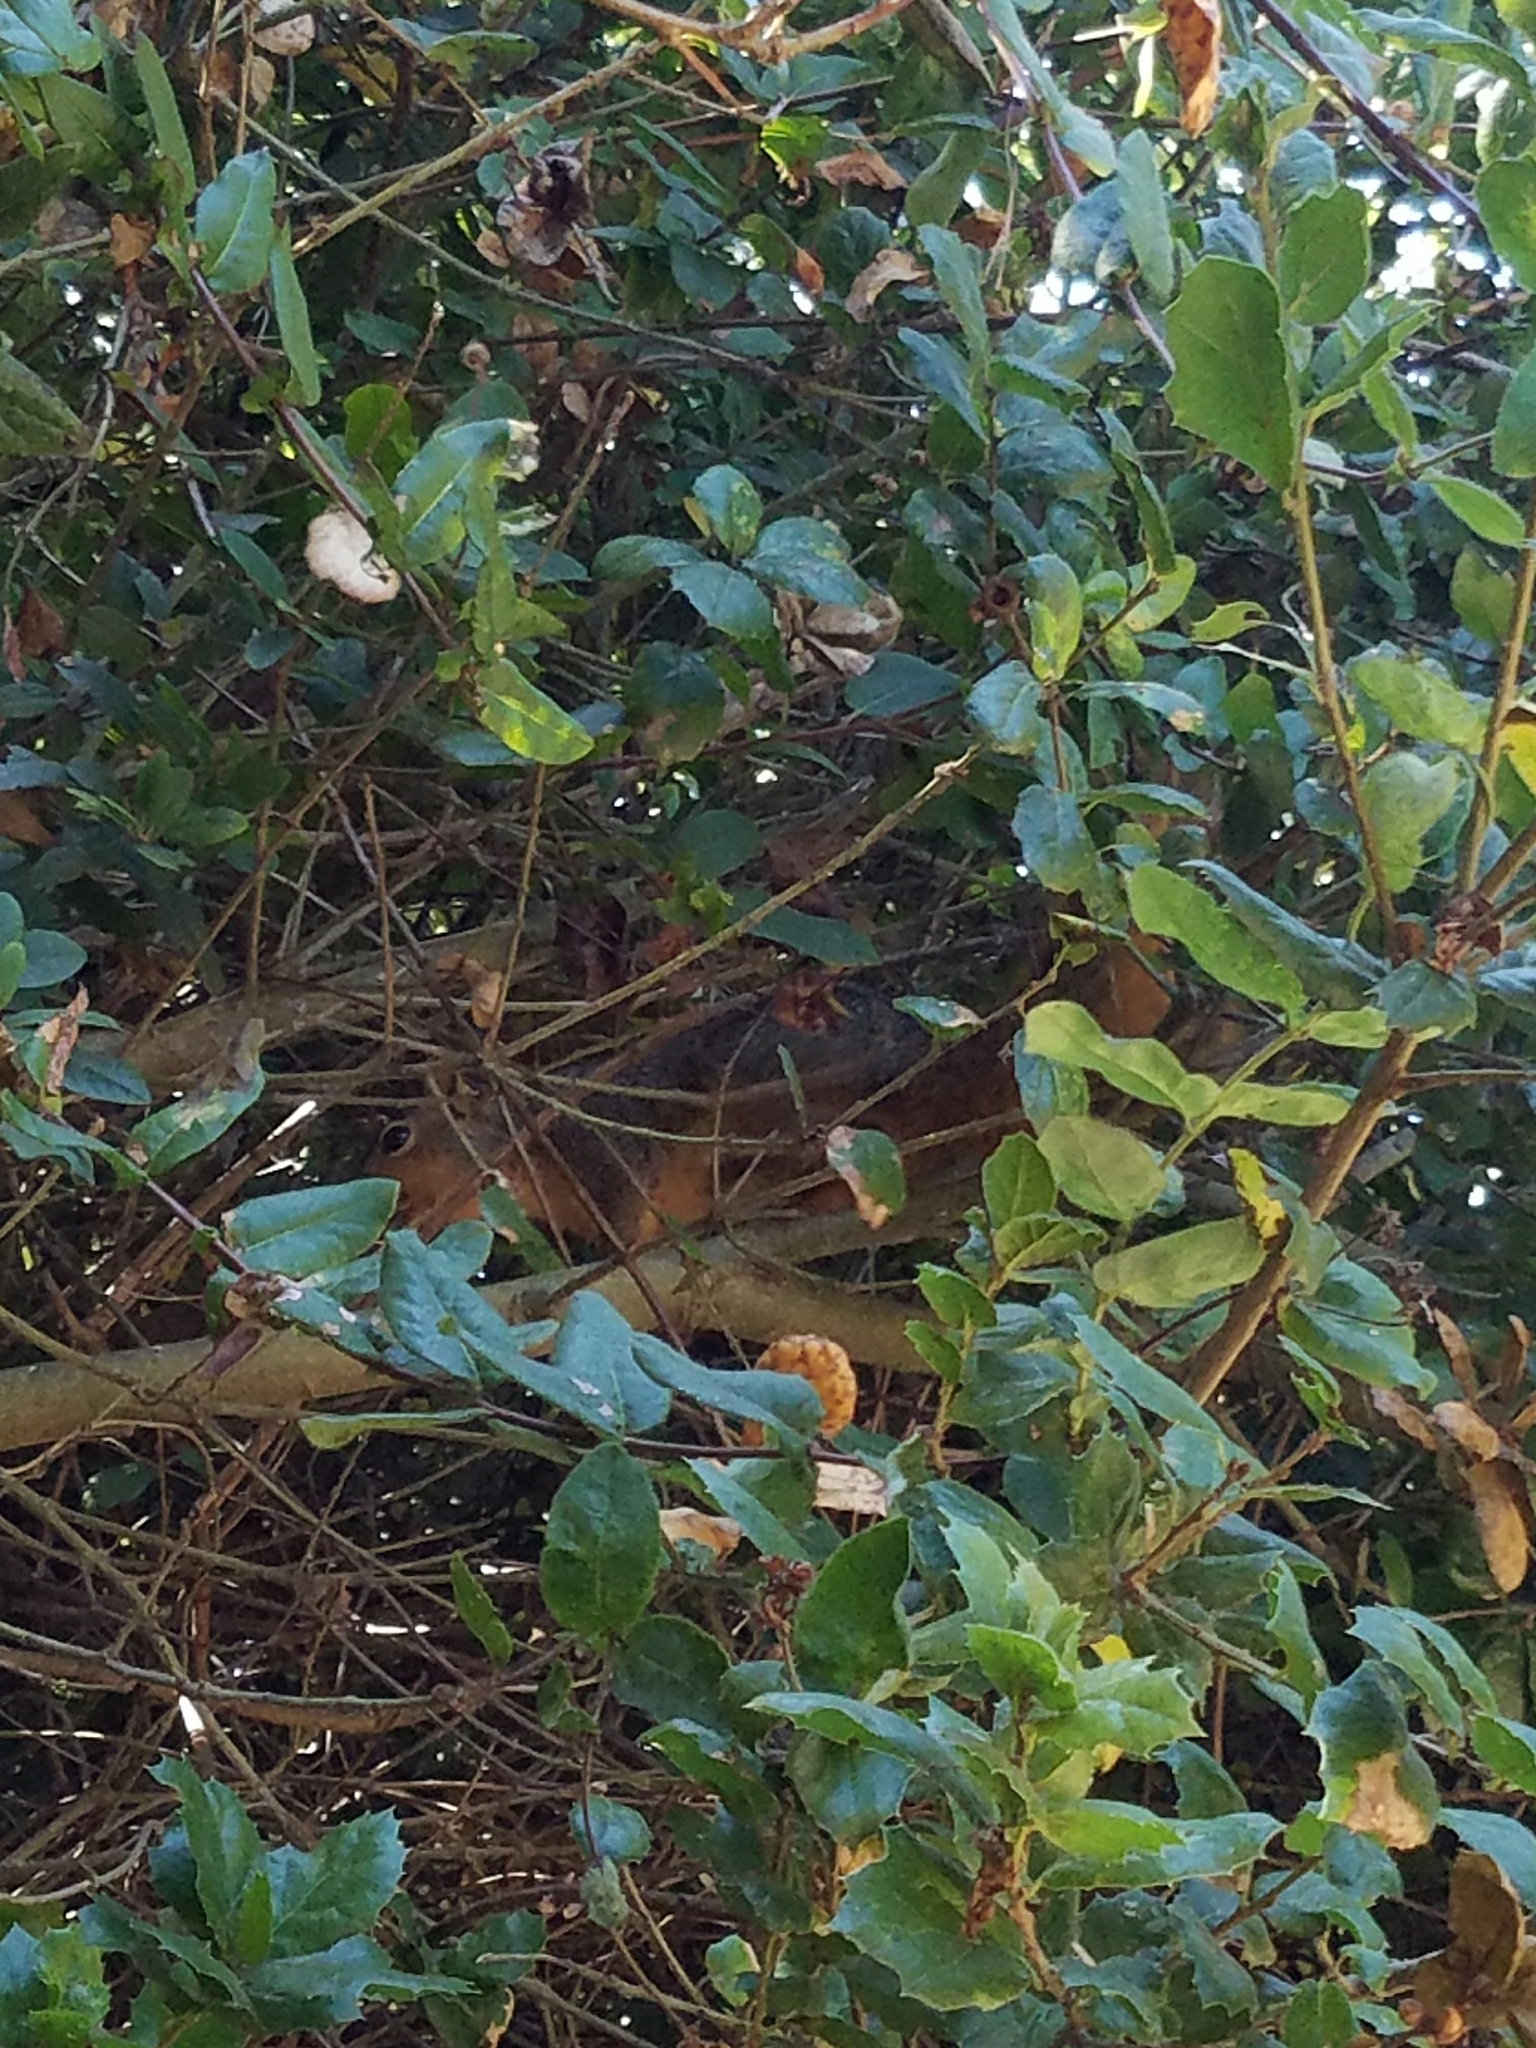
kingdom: Animalia
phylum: Chordata
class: Mammalia
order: Rodentia
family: Sciuridae
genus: Sciurus
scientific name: Sciurus niger
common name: Fox squirrel
